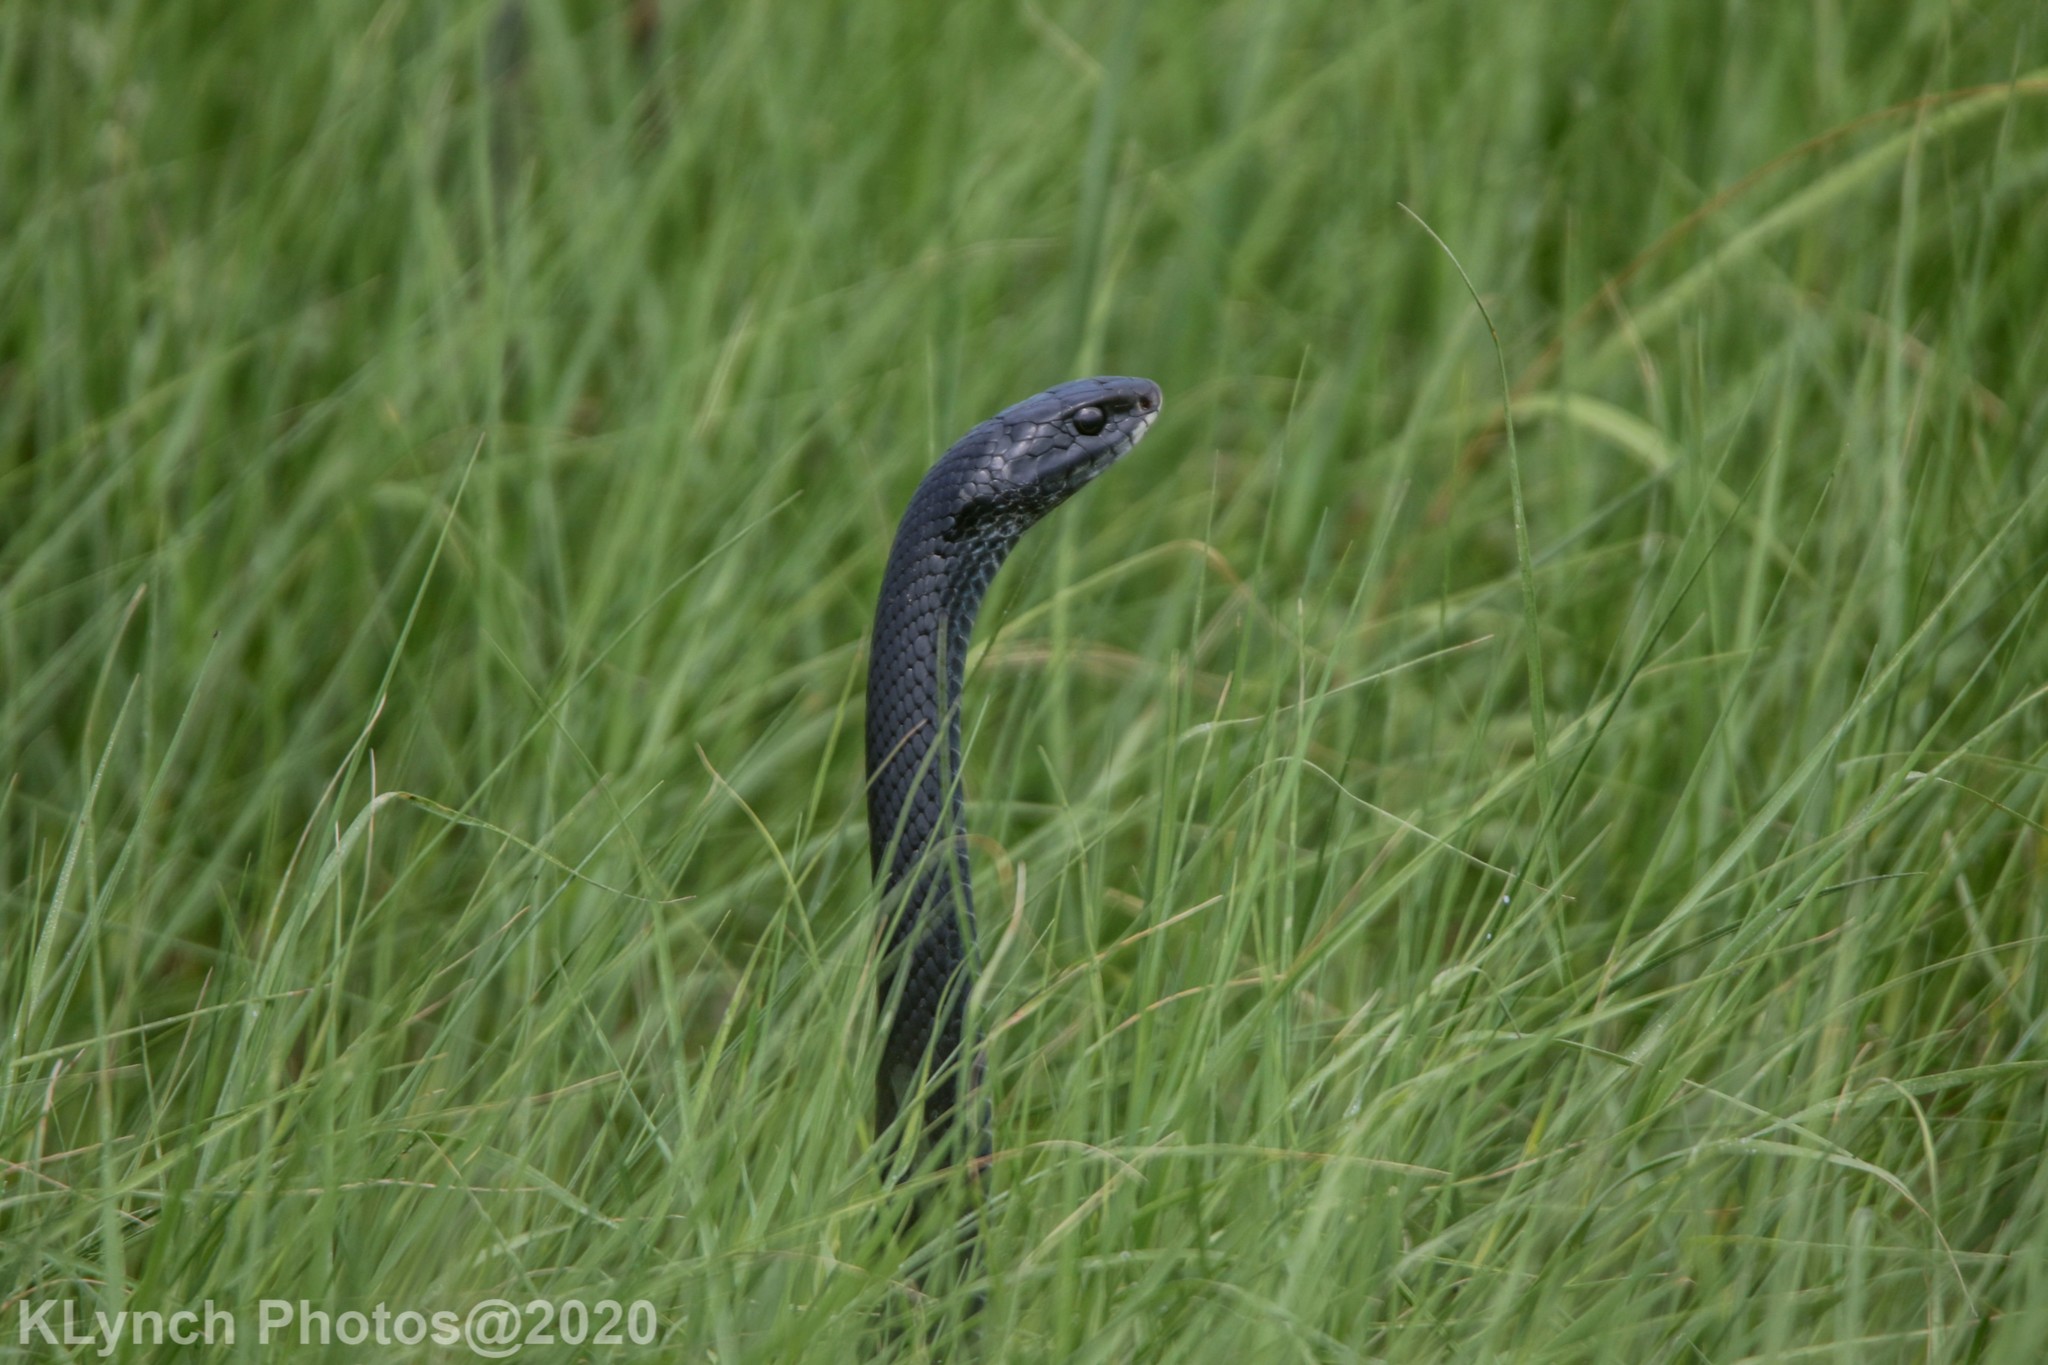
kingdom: Animalia
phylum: Chordata
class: Squamata
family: Colubridae
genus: Coluber
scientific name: Coluber constrictor
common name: Eastern racer
